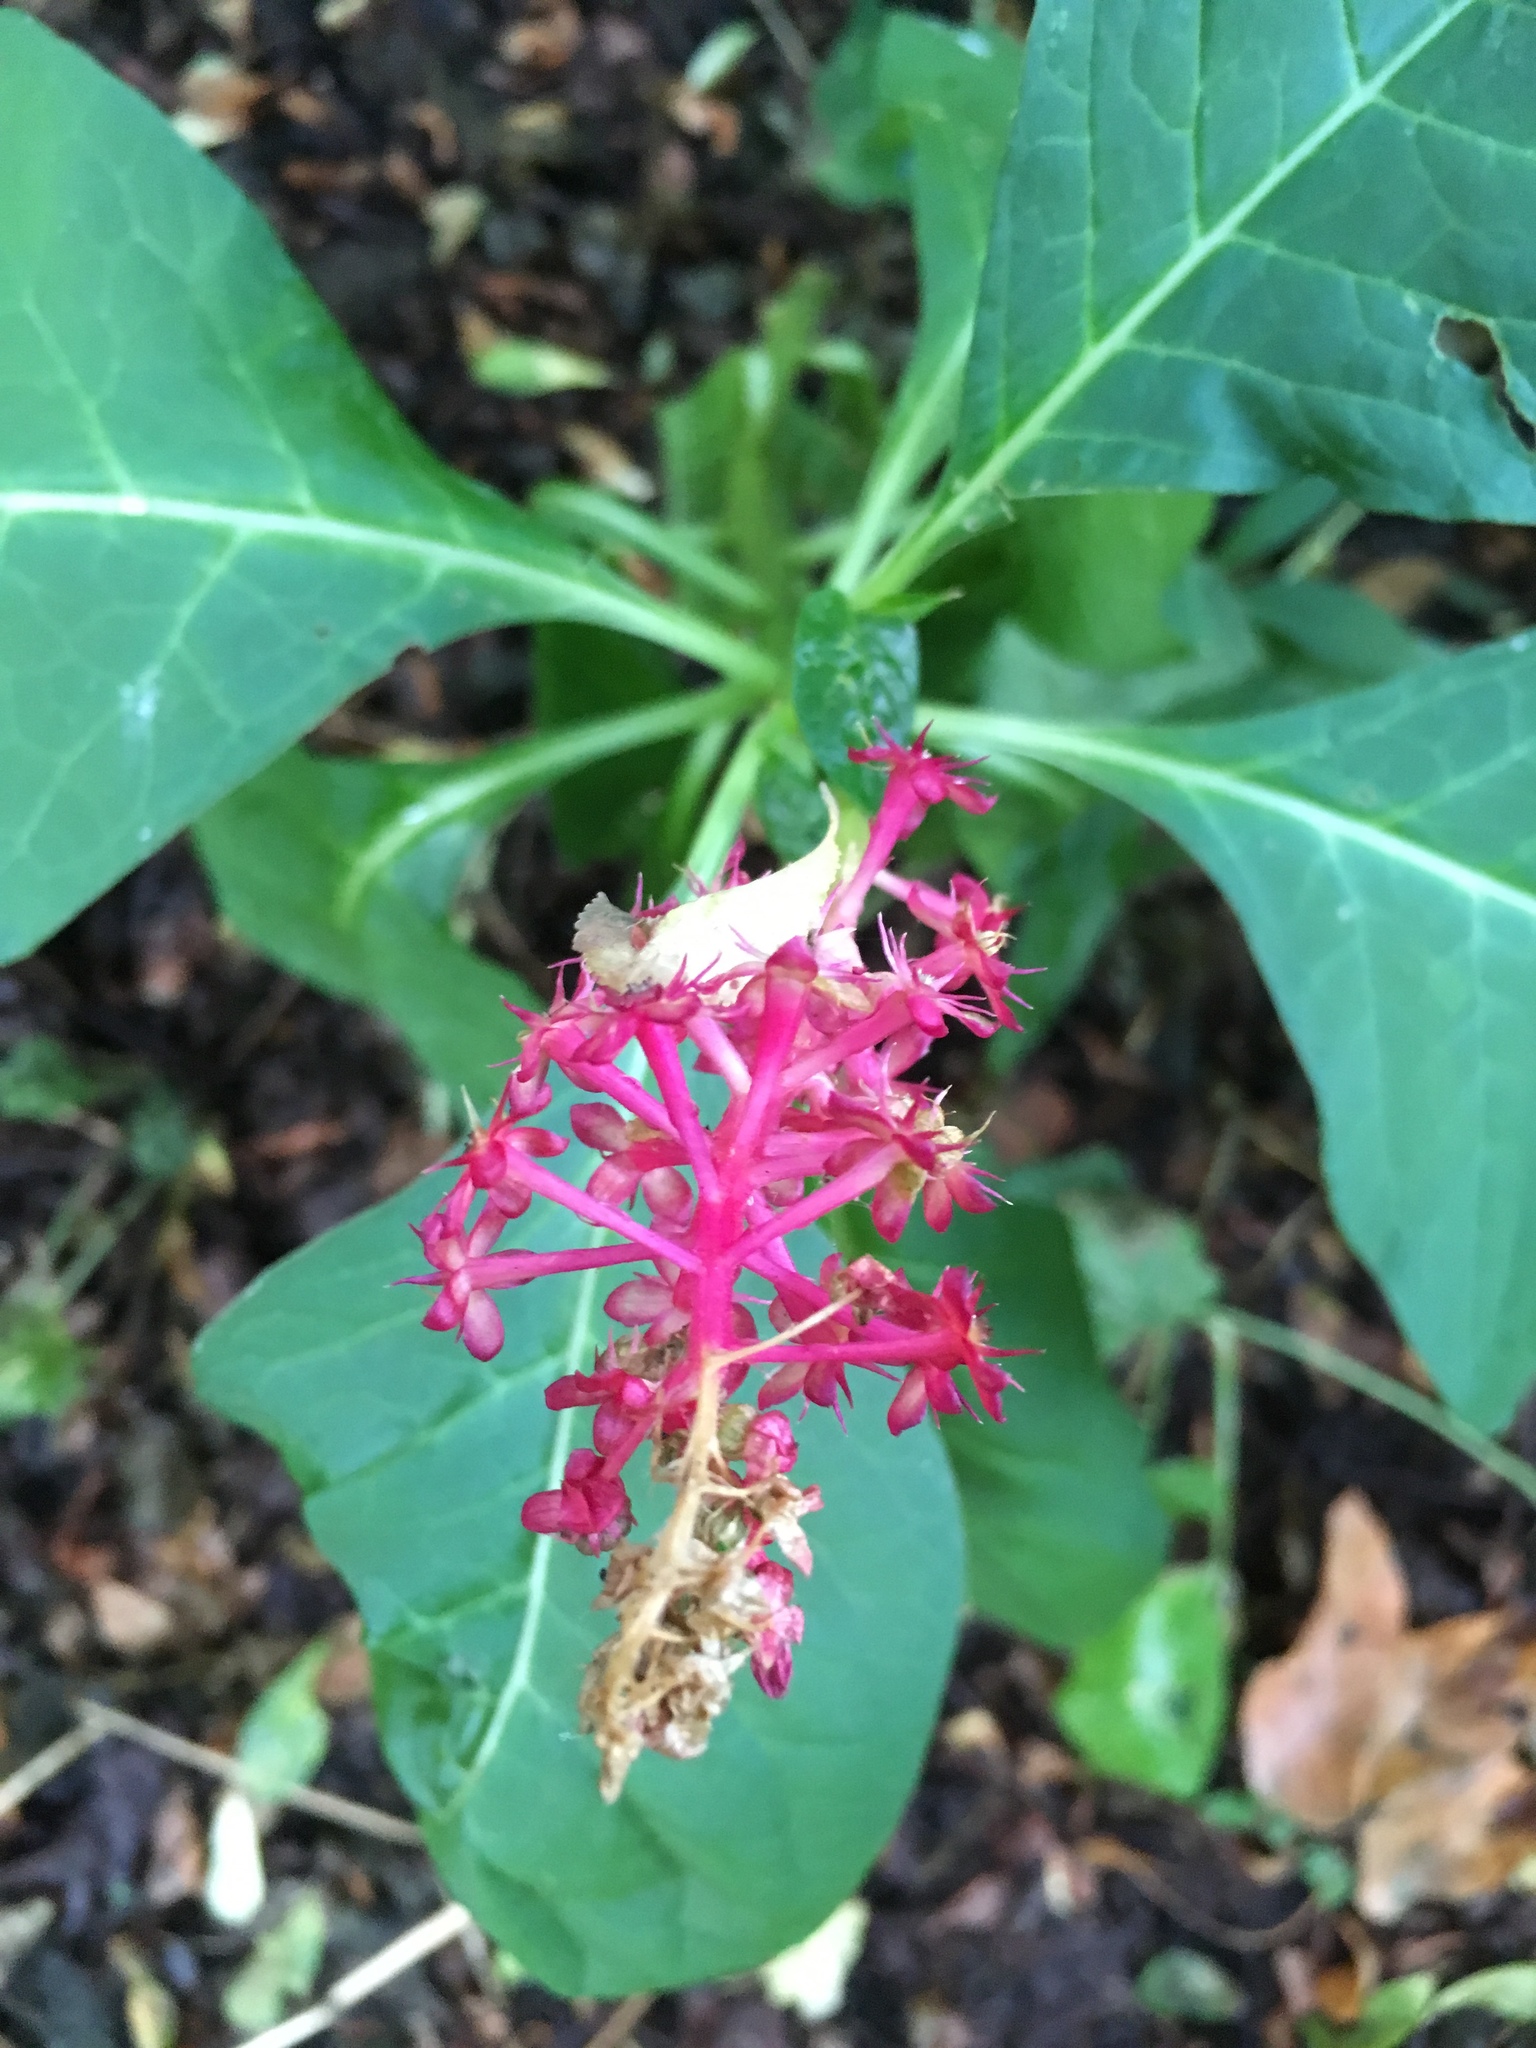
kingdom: Plantae
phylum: Tracheophyta
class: Magnoliopsida
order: Caryophyllales
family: Phytolaccaceae
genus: Phytolacca
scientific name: Phytolacca americana
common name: American pokeweed
